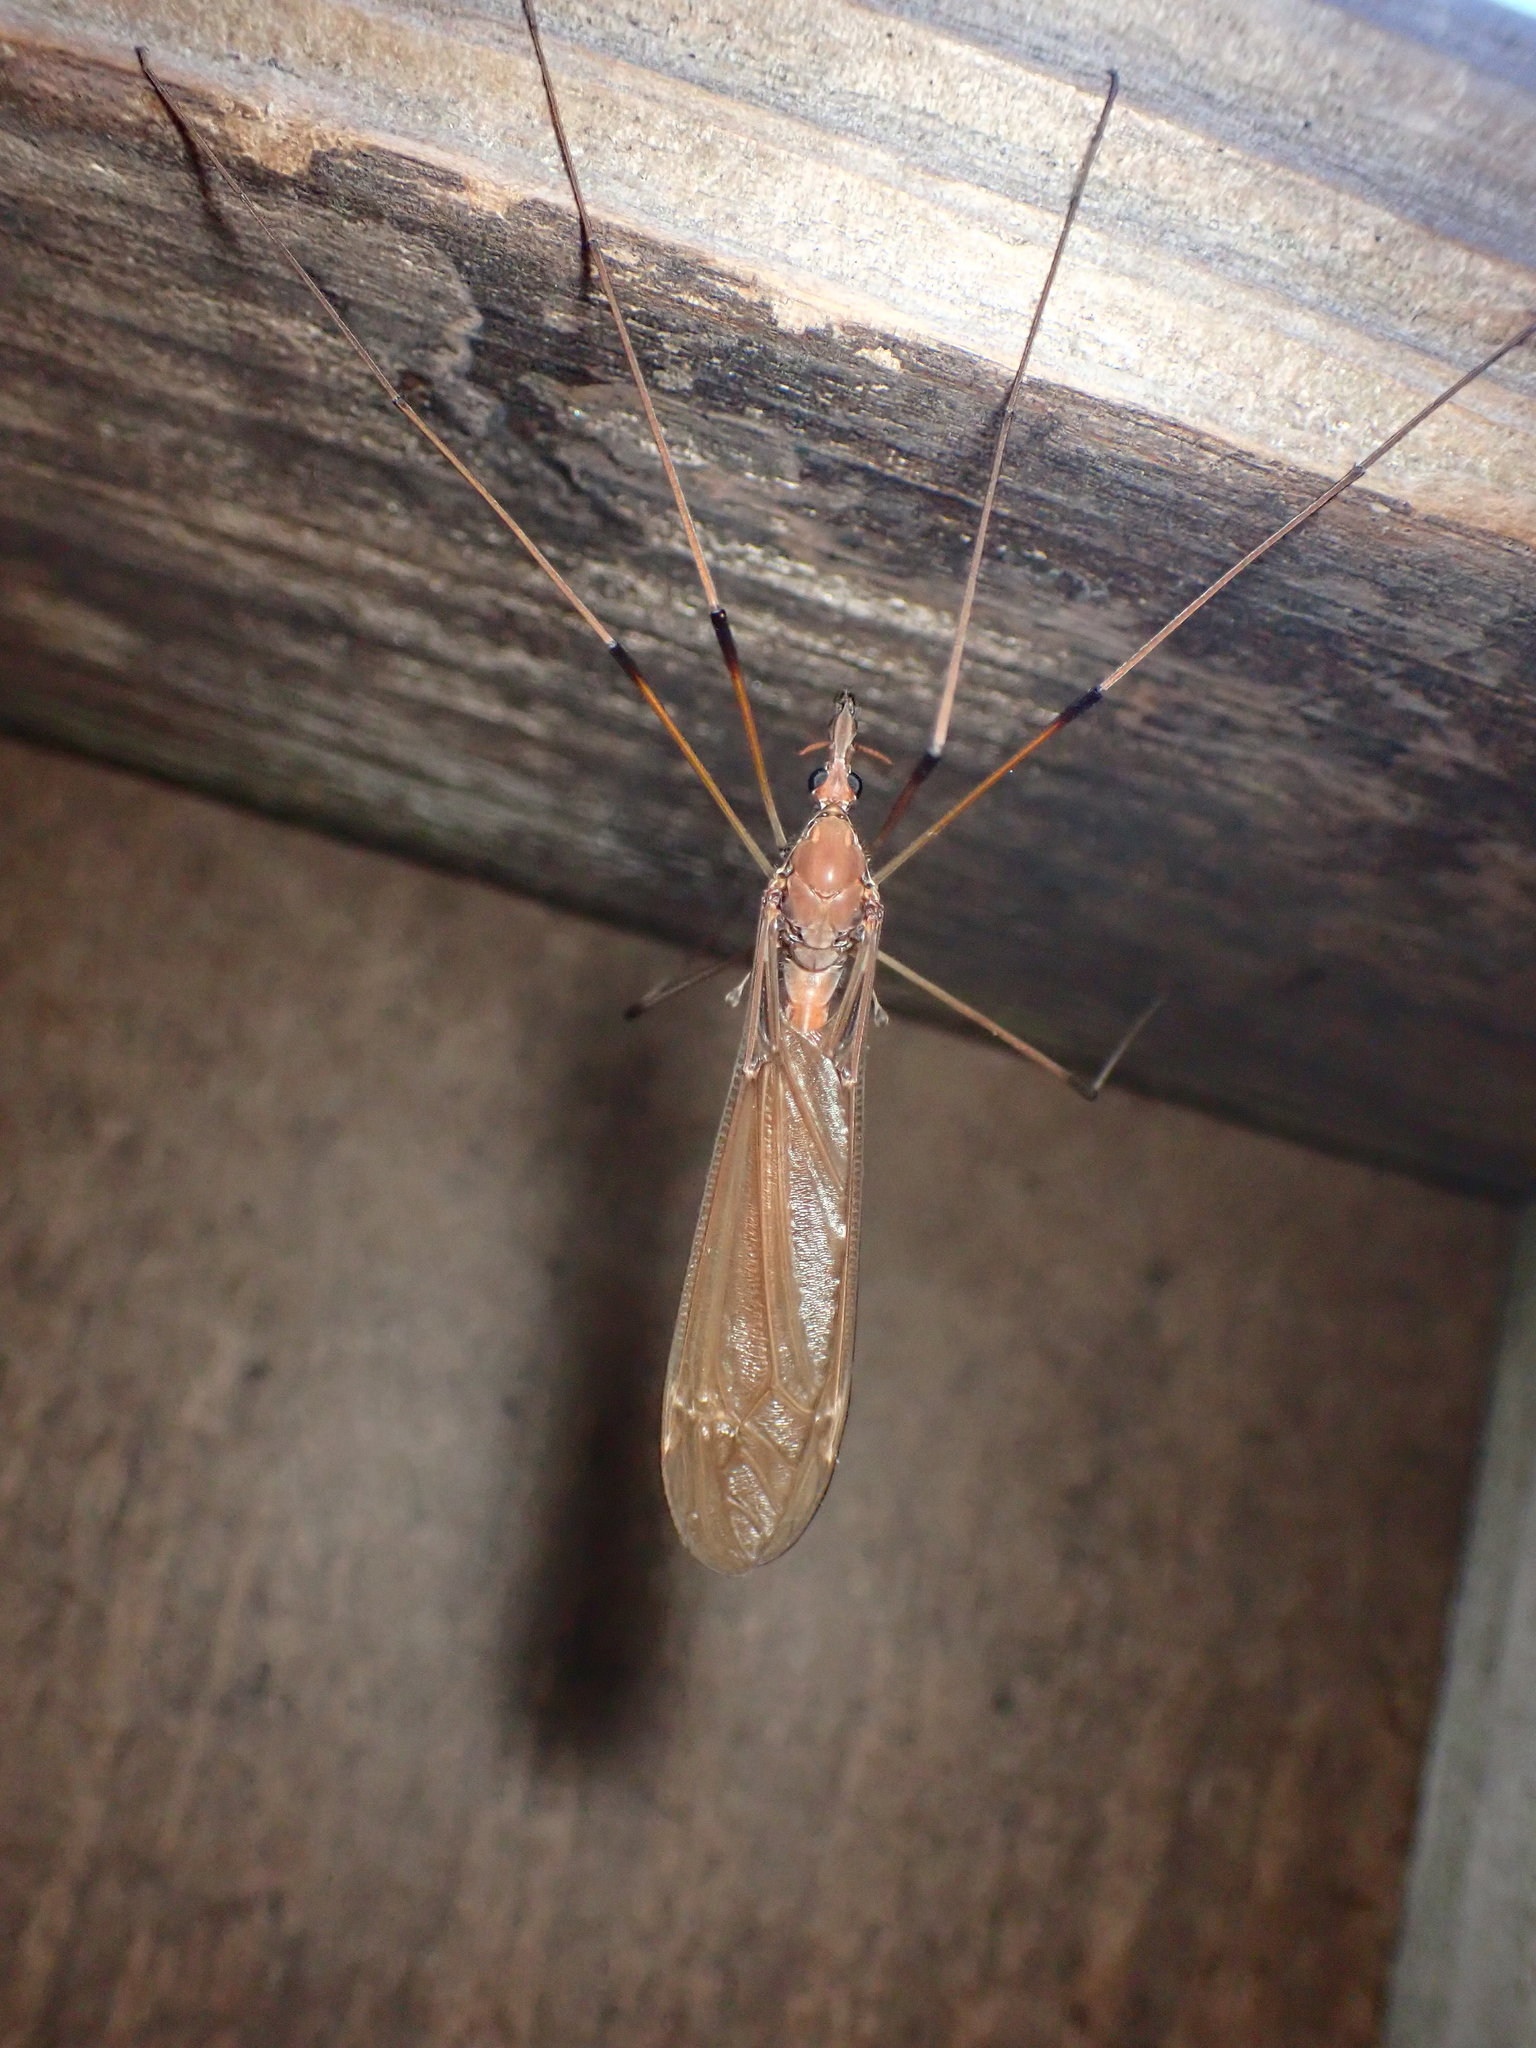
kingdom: Animalia
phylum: Arthropoda
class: Insecta
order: Diptera
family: Tipulidae
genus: Holorusia
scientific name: Holorusia hespera
